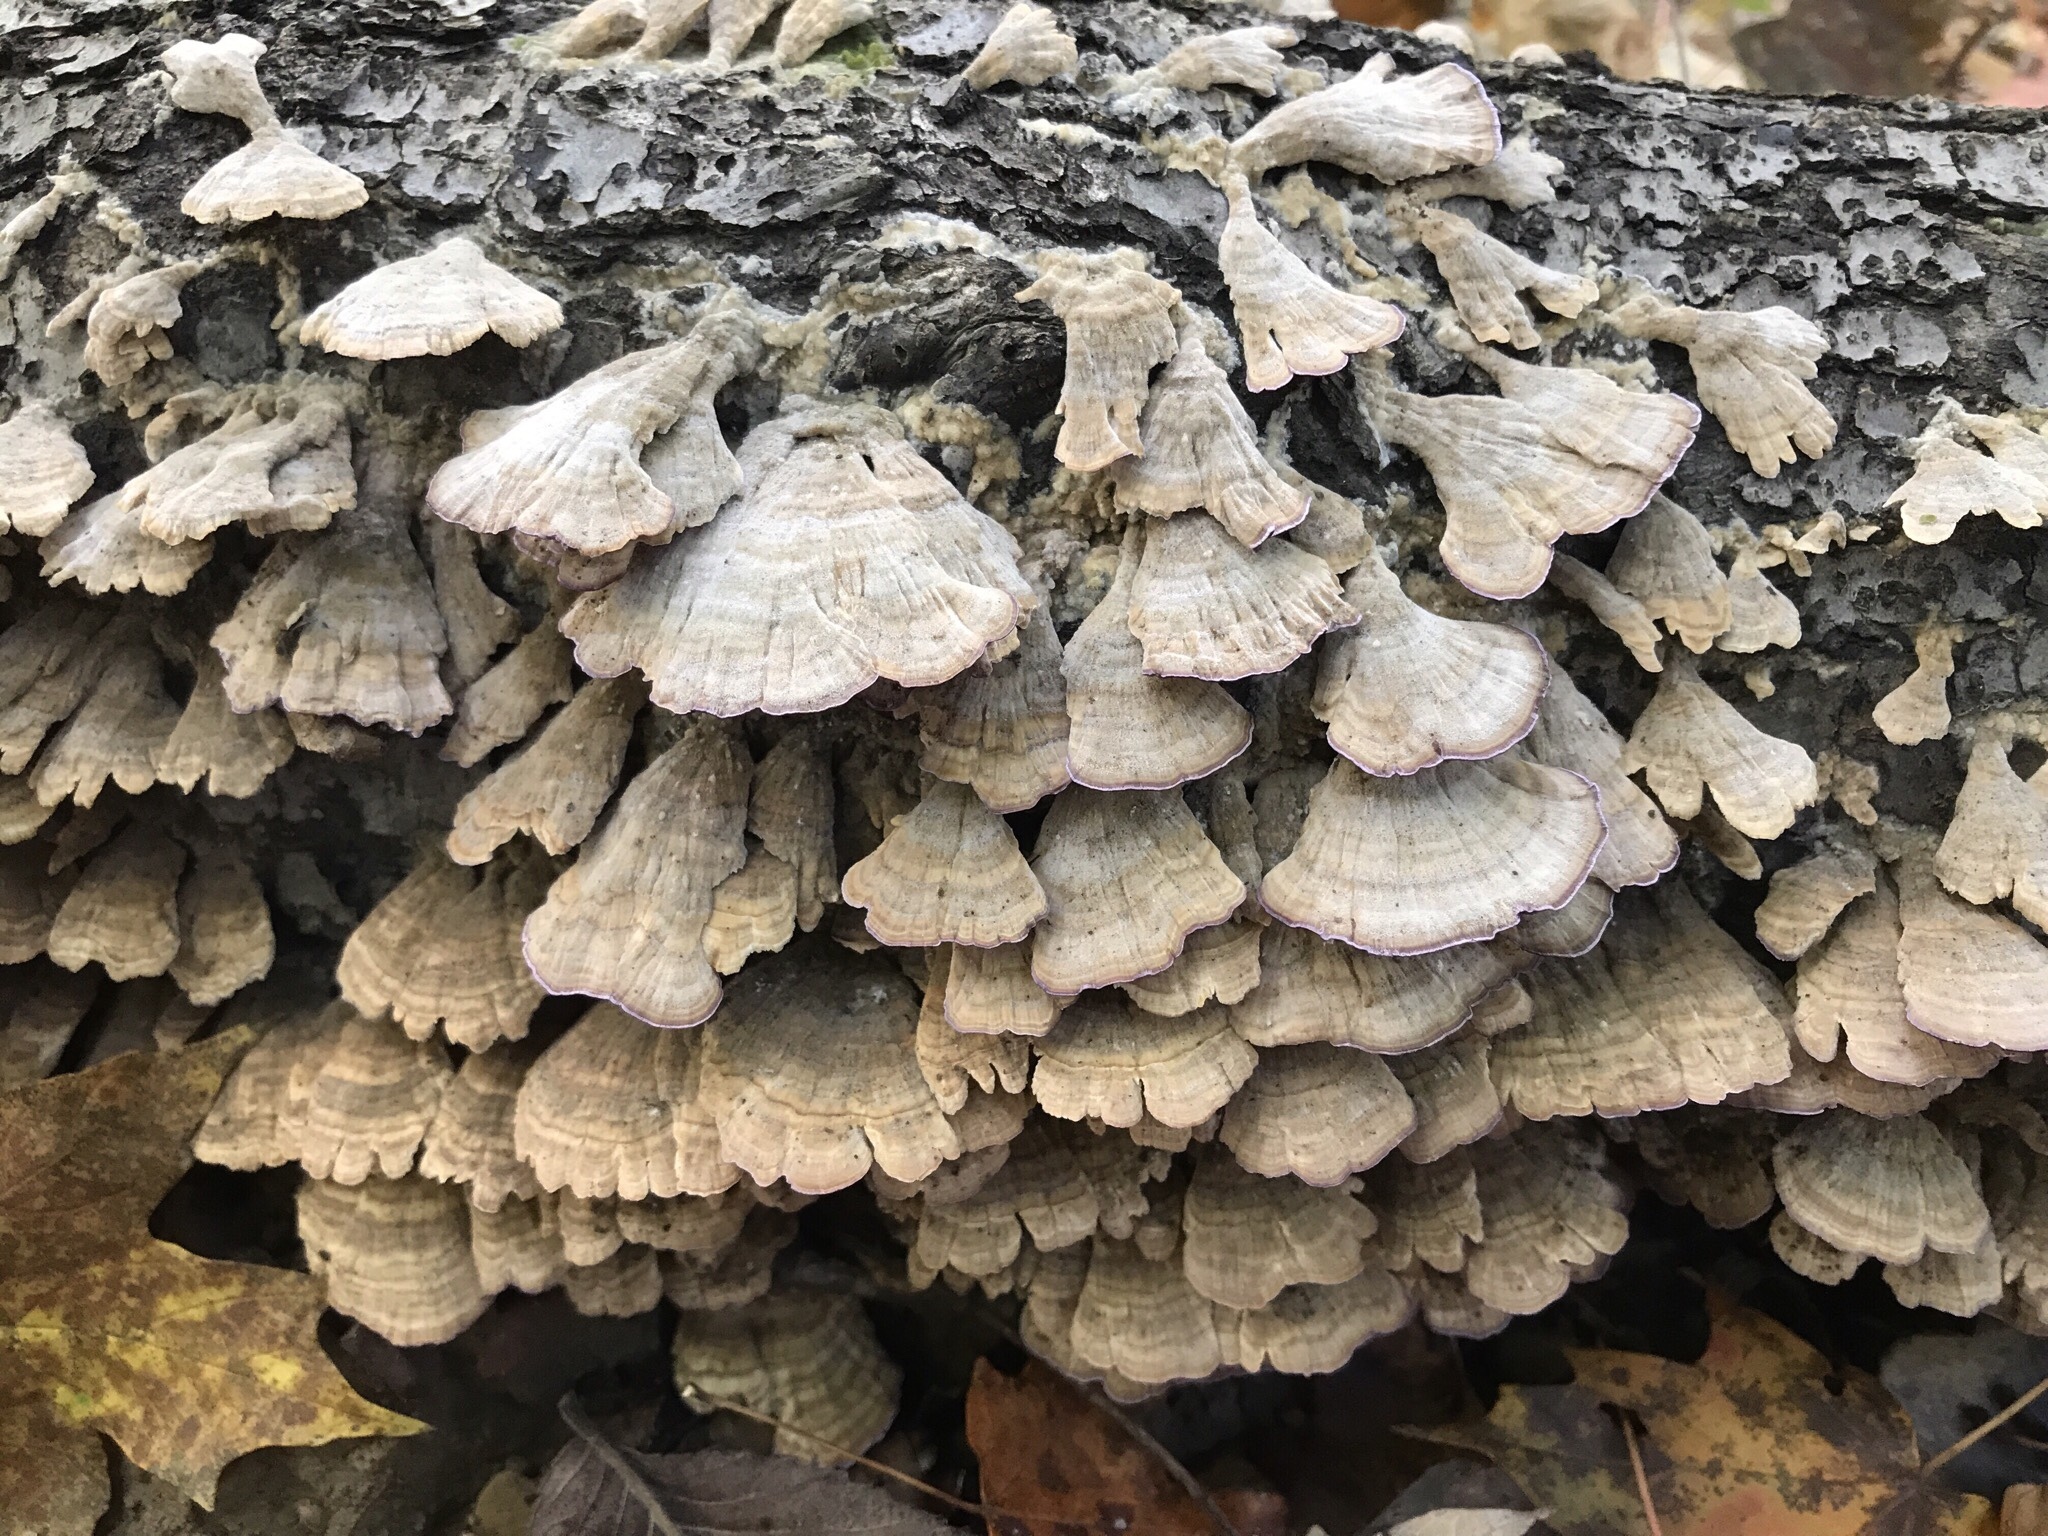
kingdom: Fungi
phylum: Basidiomycota
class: Agaricomycetes
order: Hymenochaetales
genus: Trichaptum
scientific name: Trichaptum biforme
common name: Violet-toothed polypore
